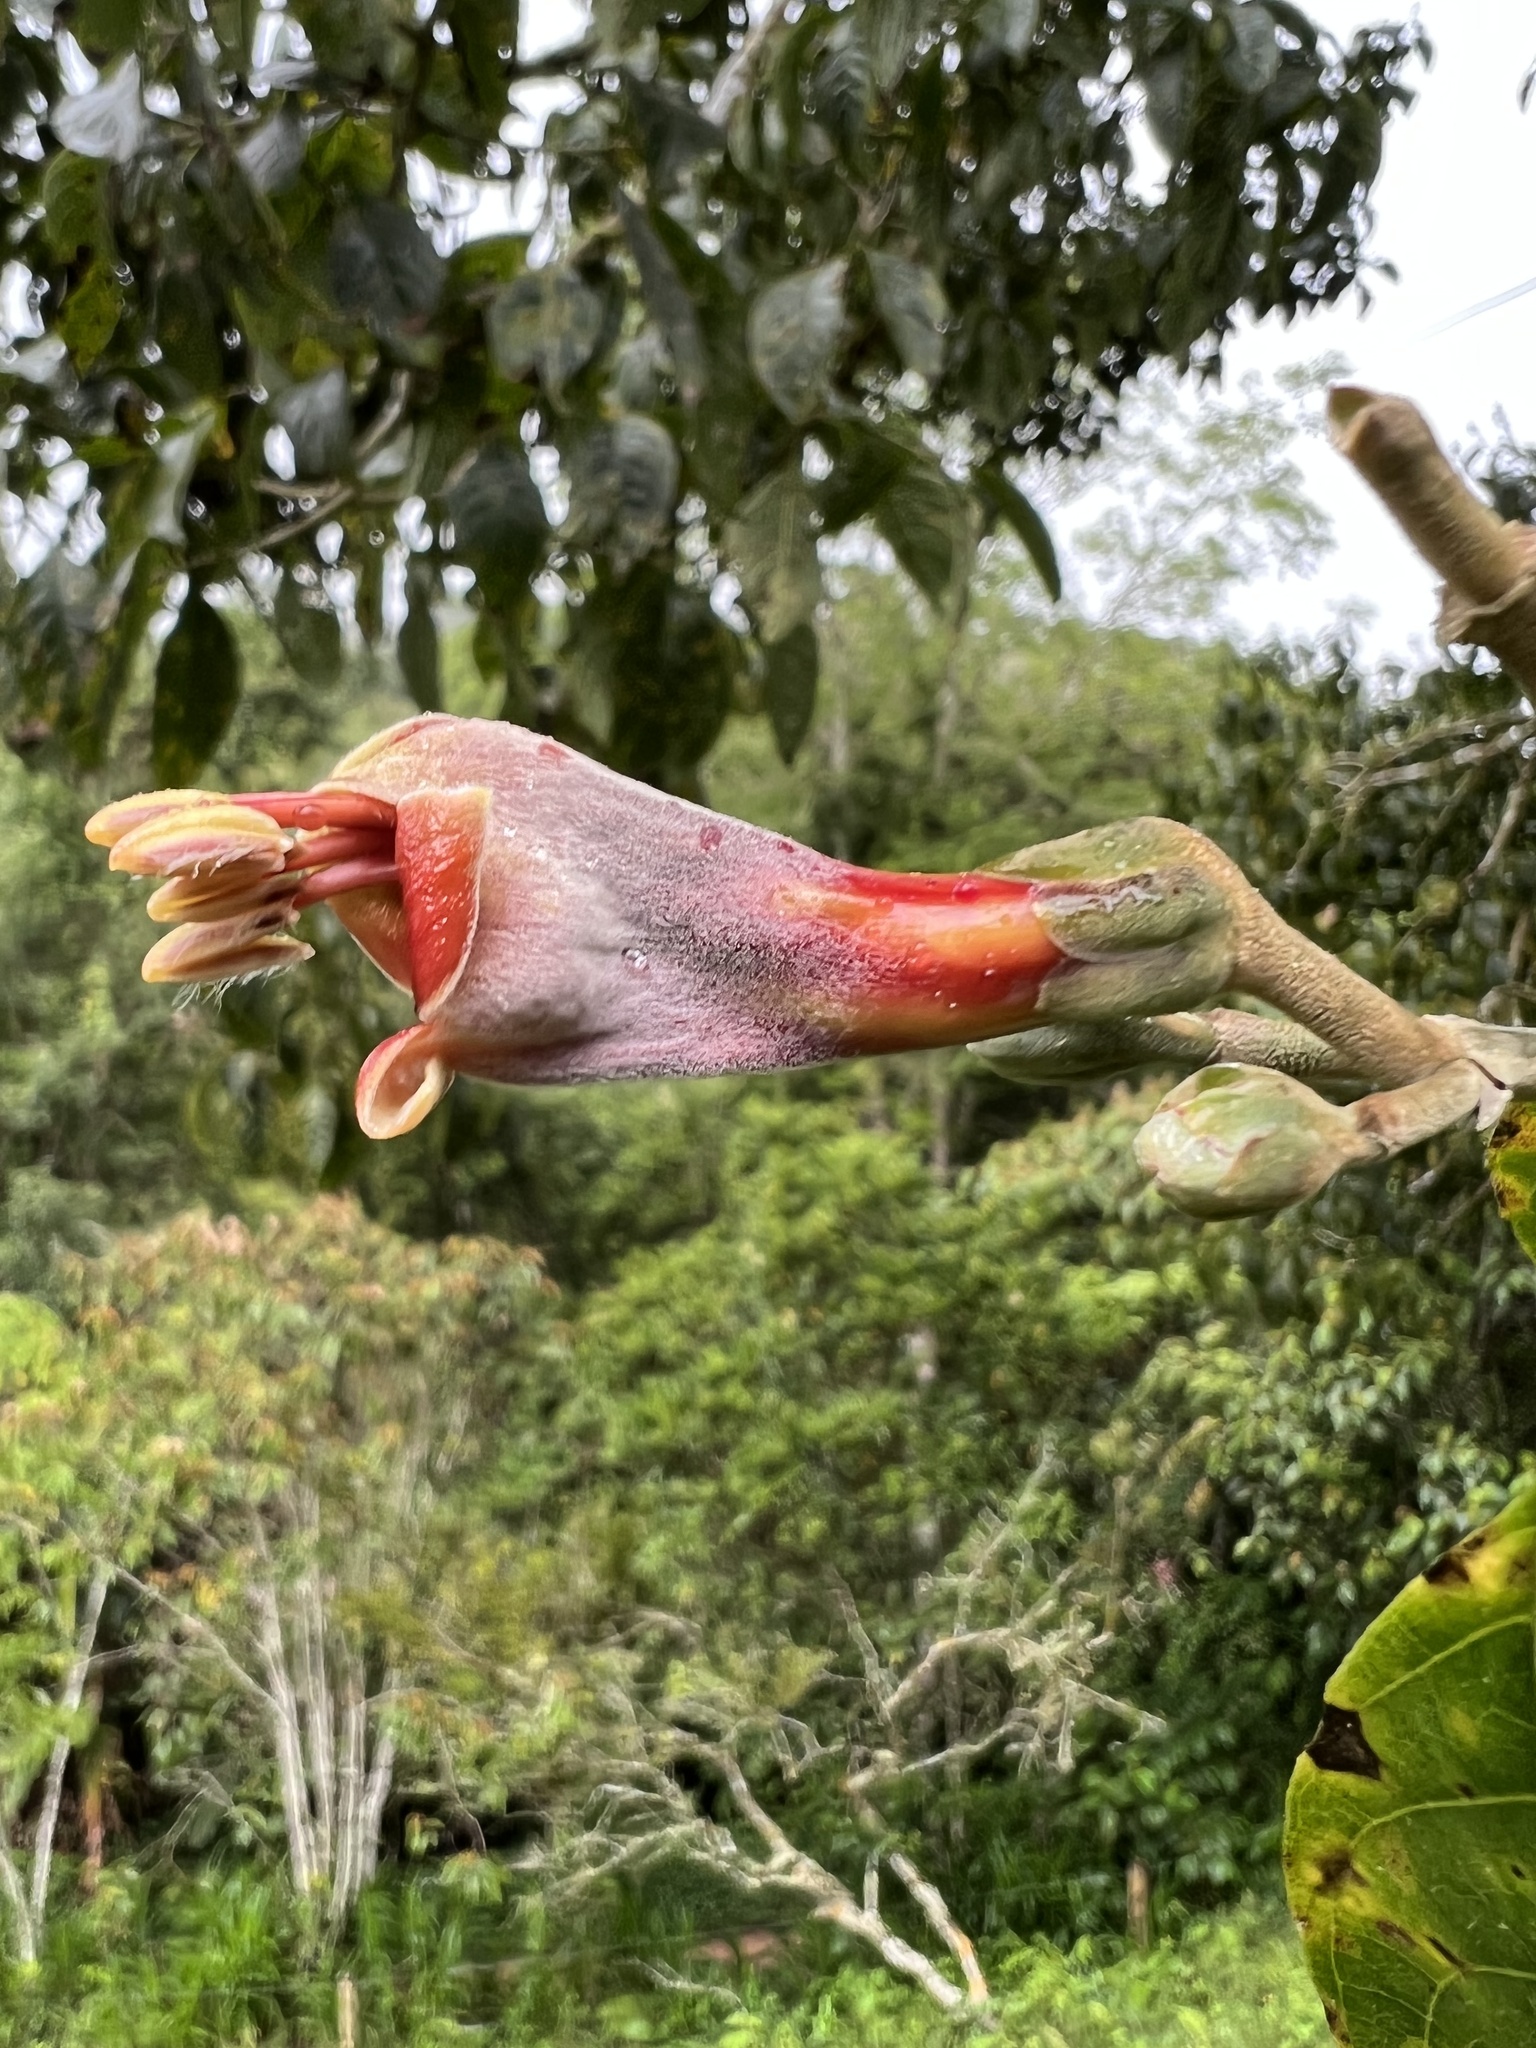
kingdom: Plantae
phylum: Tracheophyta
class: Magnoliopsida
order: Lamiales
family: Acanthaceae
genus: Trichanthera
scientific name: Trichanthera gigantea
